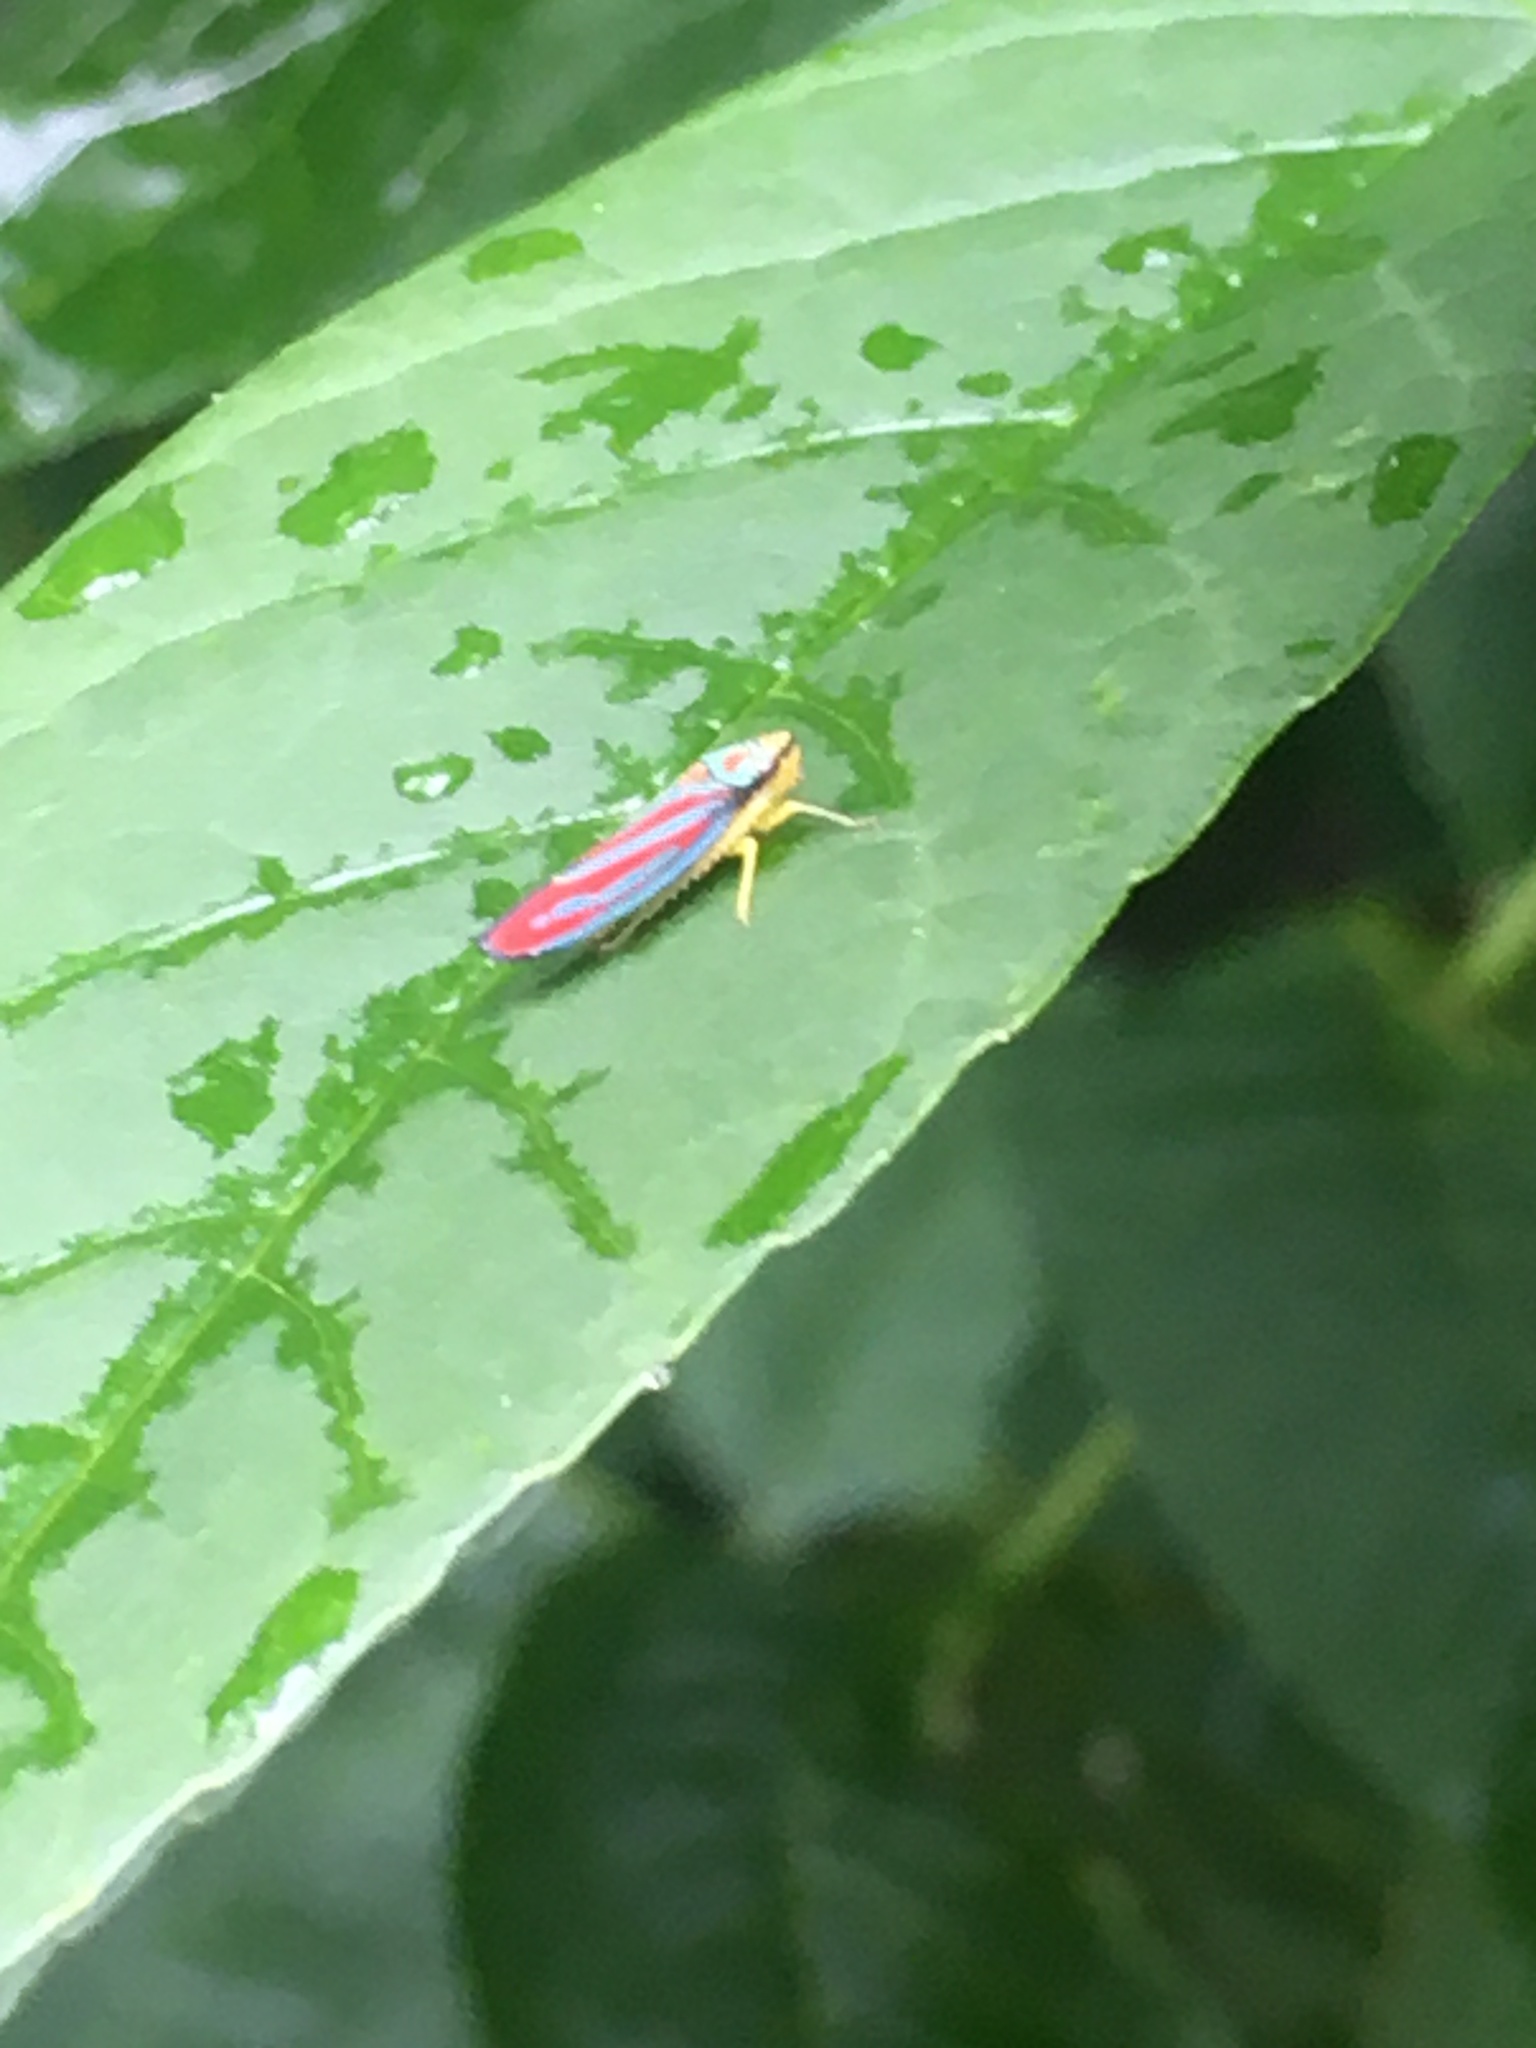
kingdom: Animalia
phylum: Arthropoda
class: Insecta
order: Hemiptera
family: Cicadellidae
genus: Graphocephala
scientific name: Graphocephala coccinea
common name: Candy-striped leafhopper
